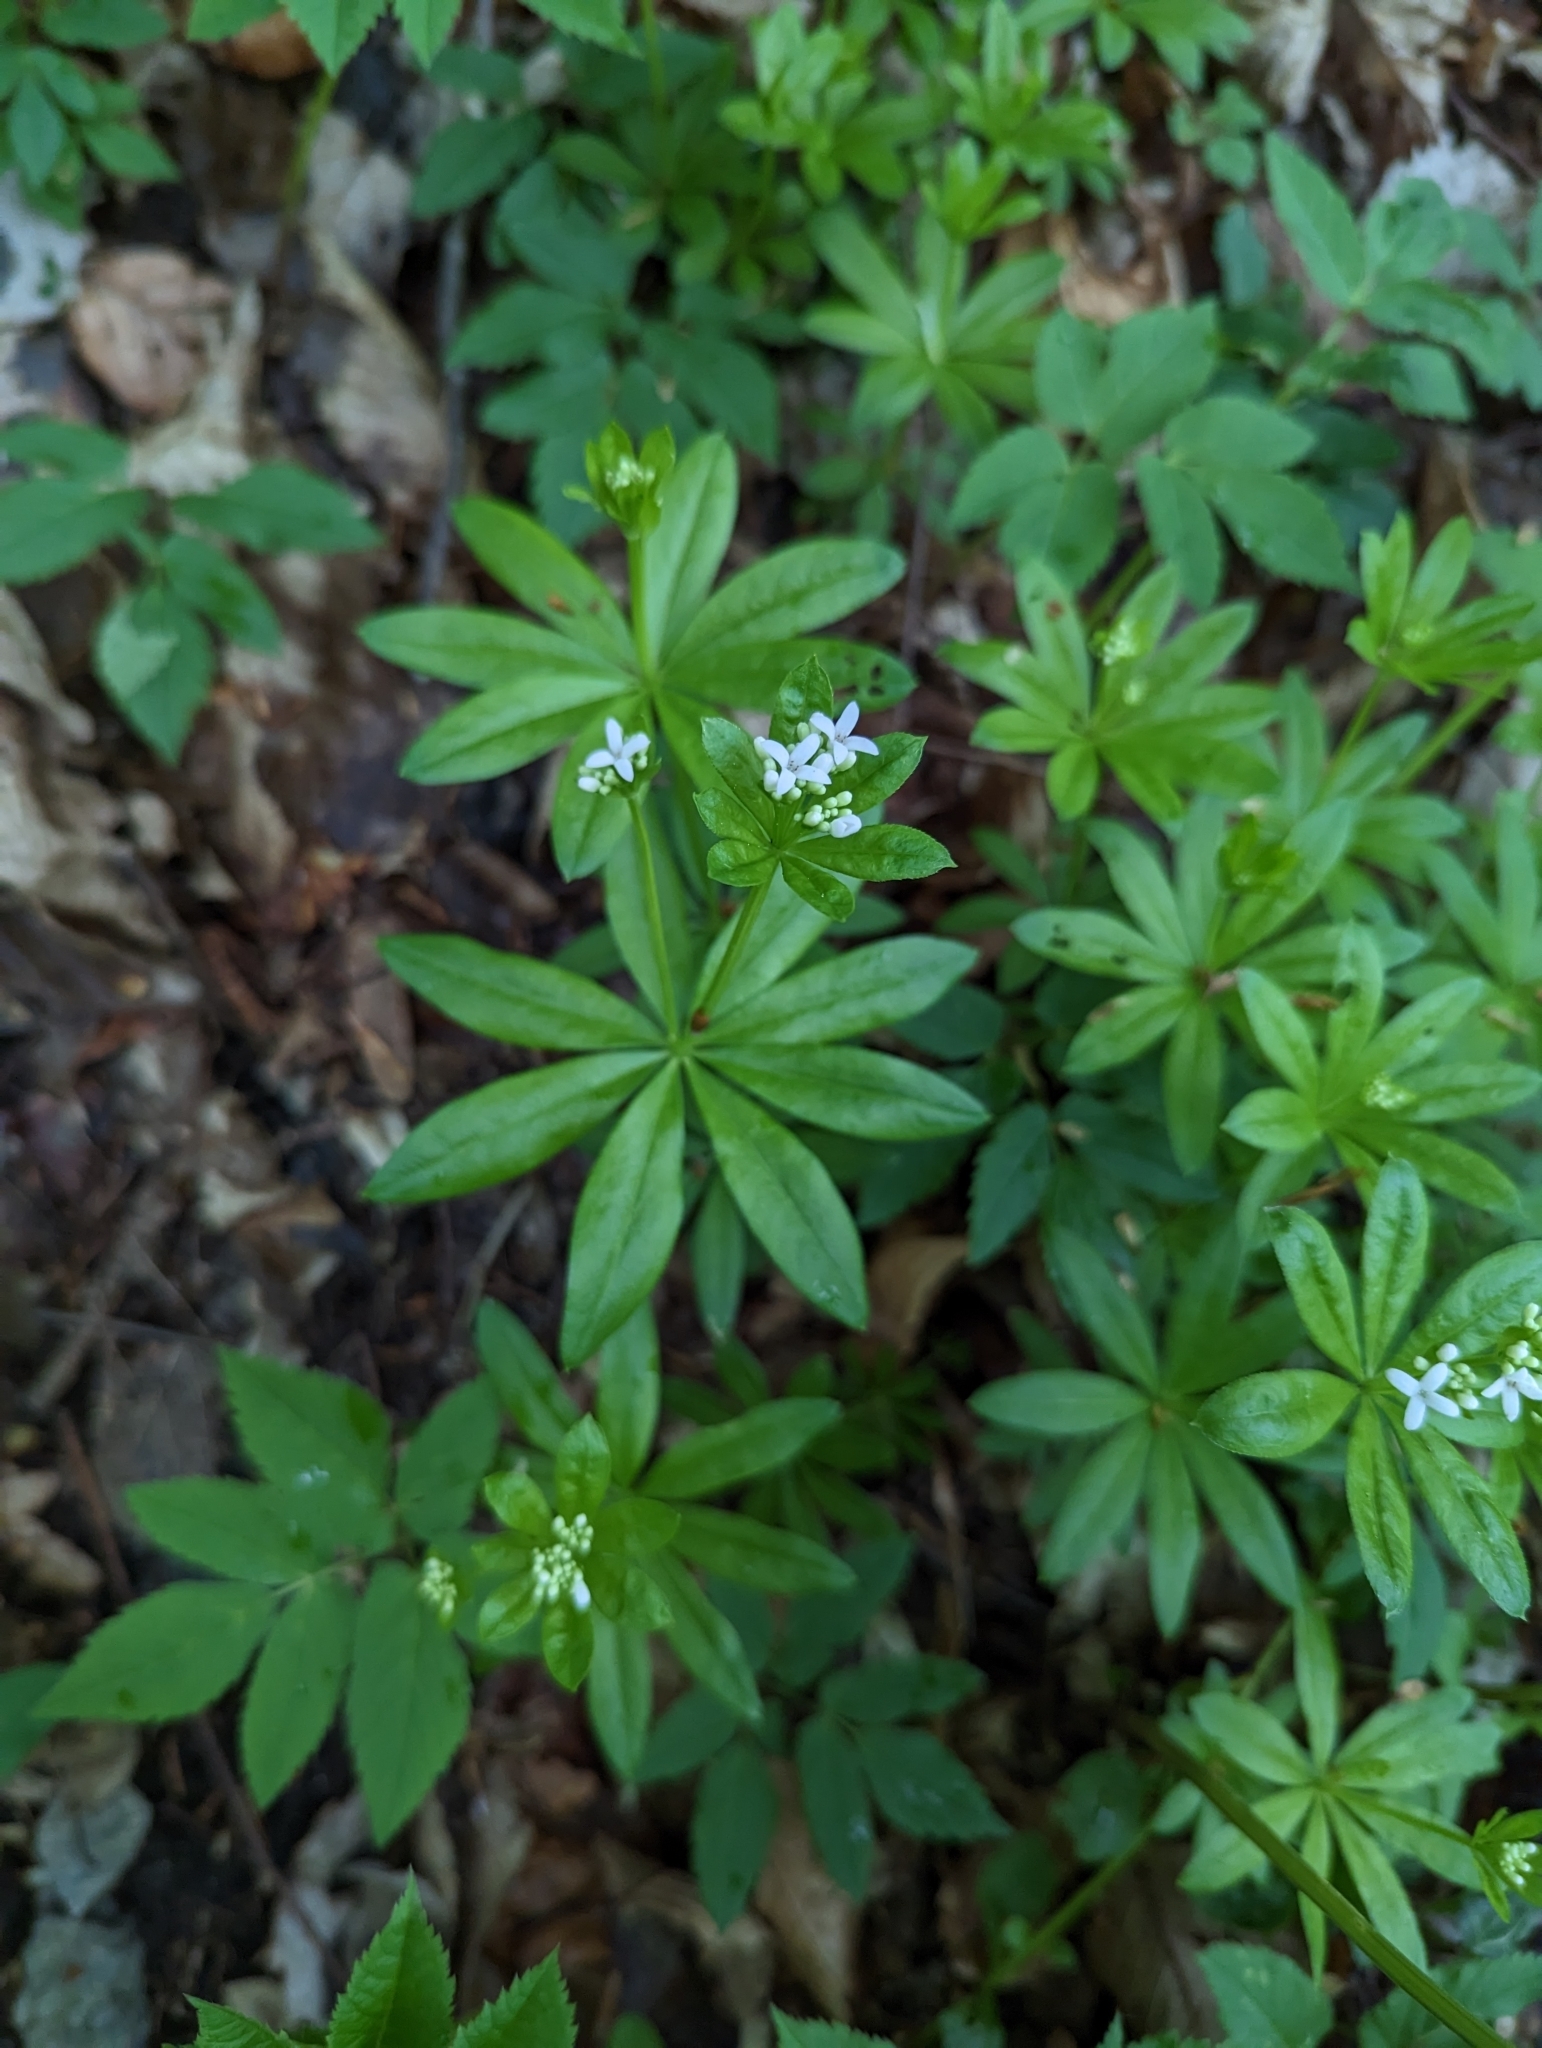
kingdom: Plantae
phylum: Tracheophyta
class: Magnoliopsida
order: Gentianales
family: Rubiaceae
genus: Galium
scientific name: Galium odoratum
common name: Sweet woodruff
